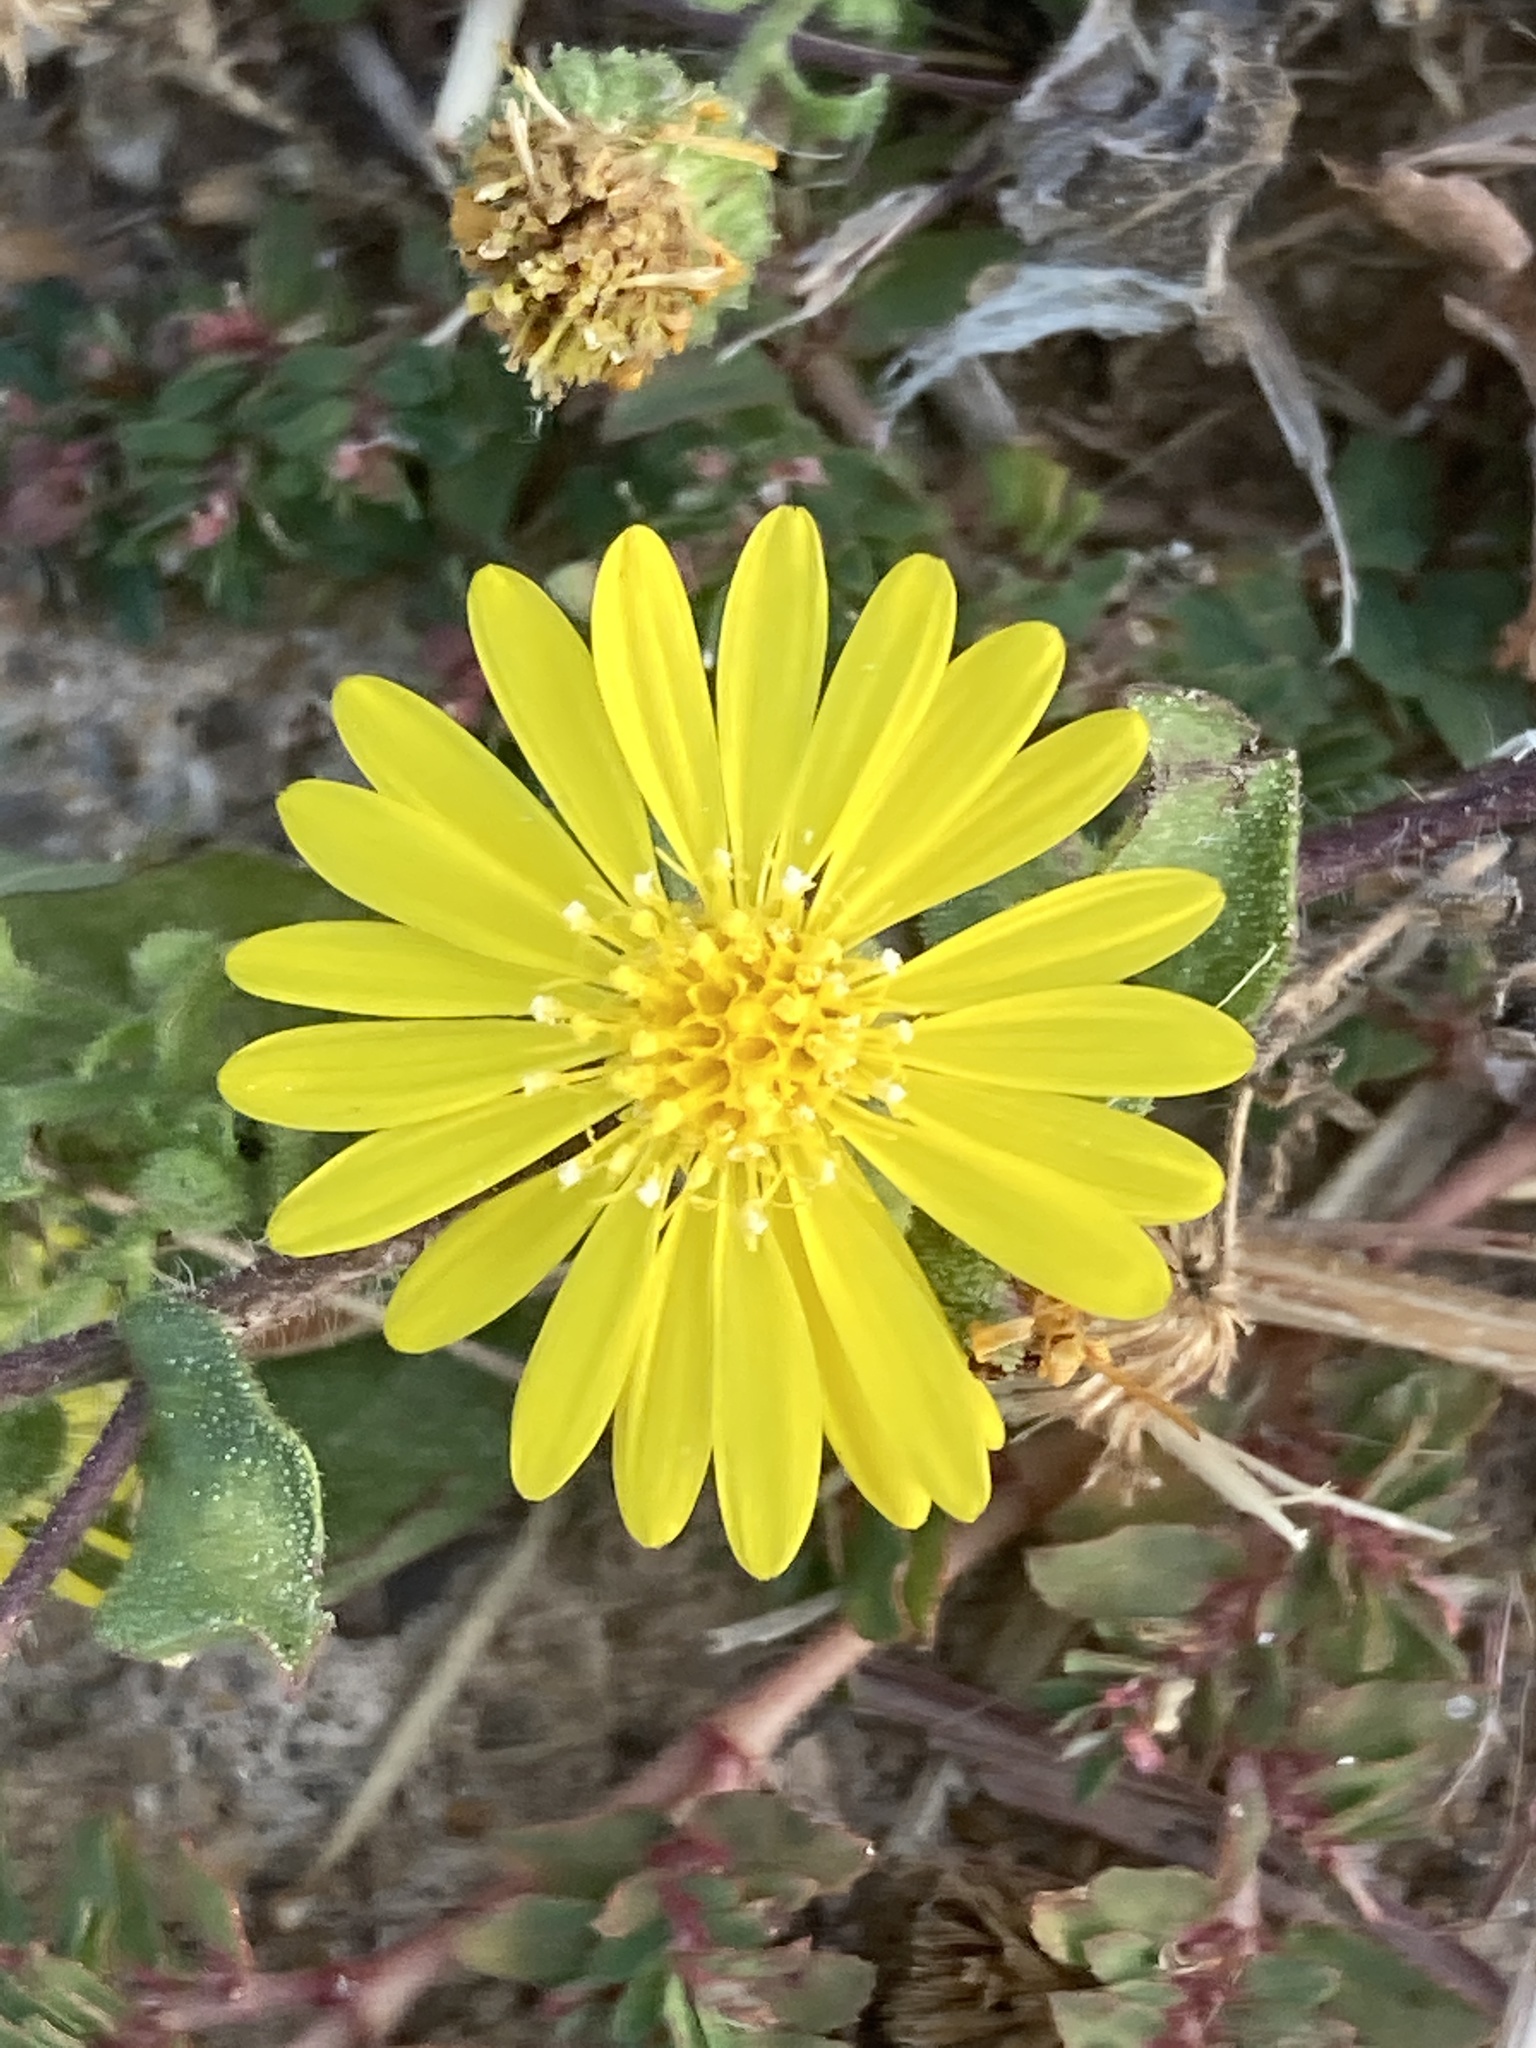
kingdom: Plantae
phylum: Tracheophyta
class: Magnoliopsida
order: Asterales
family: Asteraceae
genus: Heterotheca
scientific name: Heterotheca subaxillaris
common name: Camphorweed
